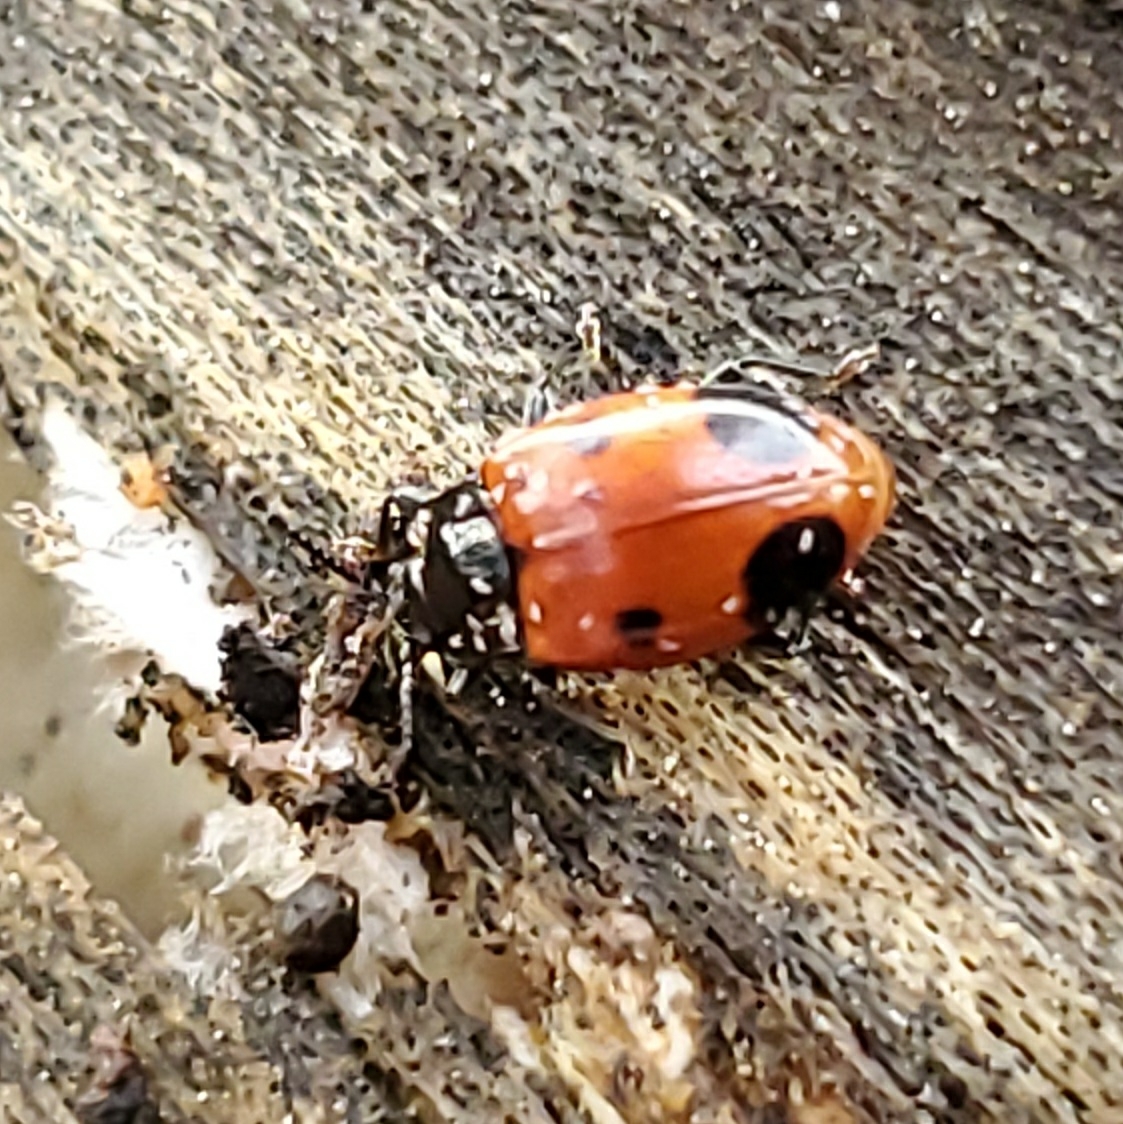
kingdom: Animalia
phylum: Arthropoda
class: Insecta
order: Coleoptera
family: Endomychidae
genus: Endomychus
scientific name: Endomychus biguttatus
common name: Handsome fungus beetle
